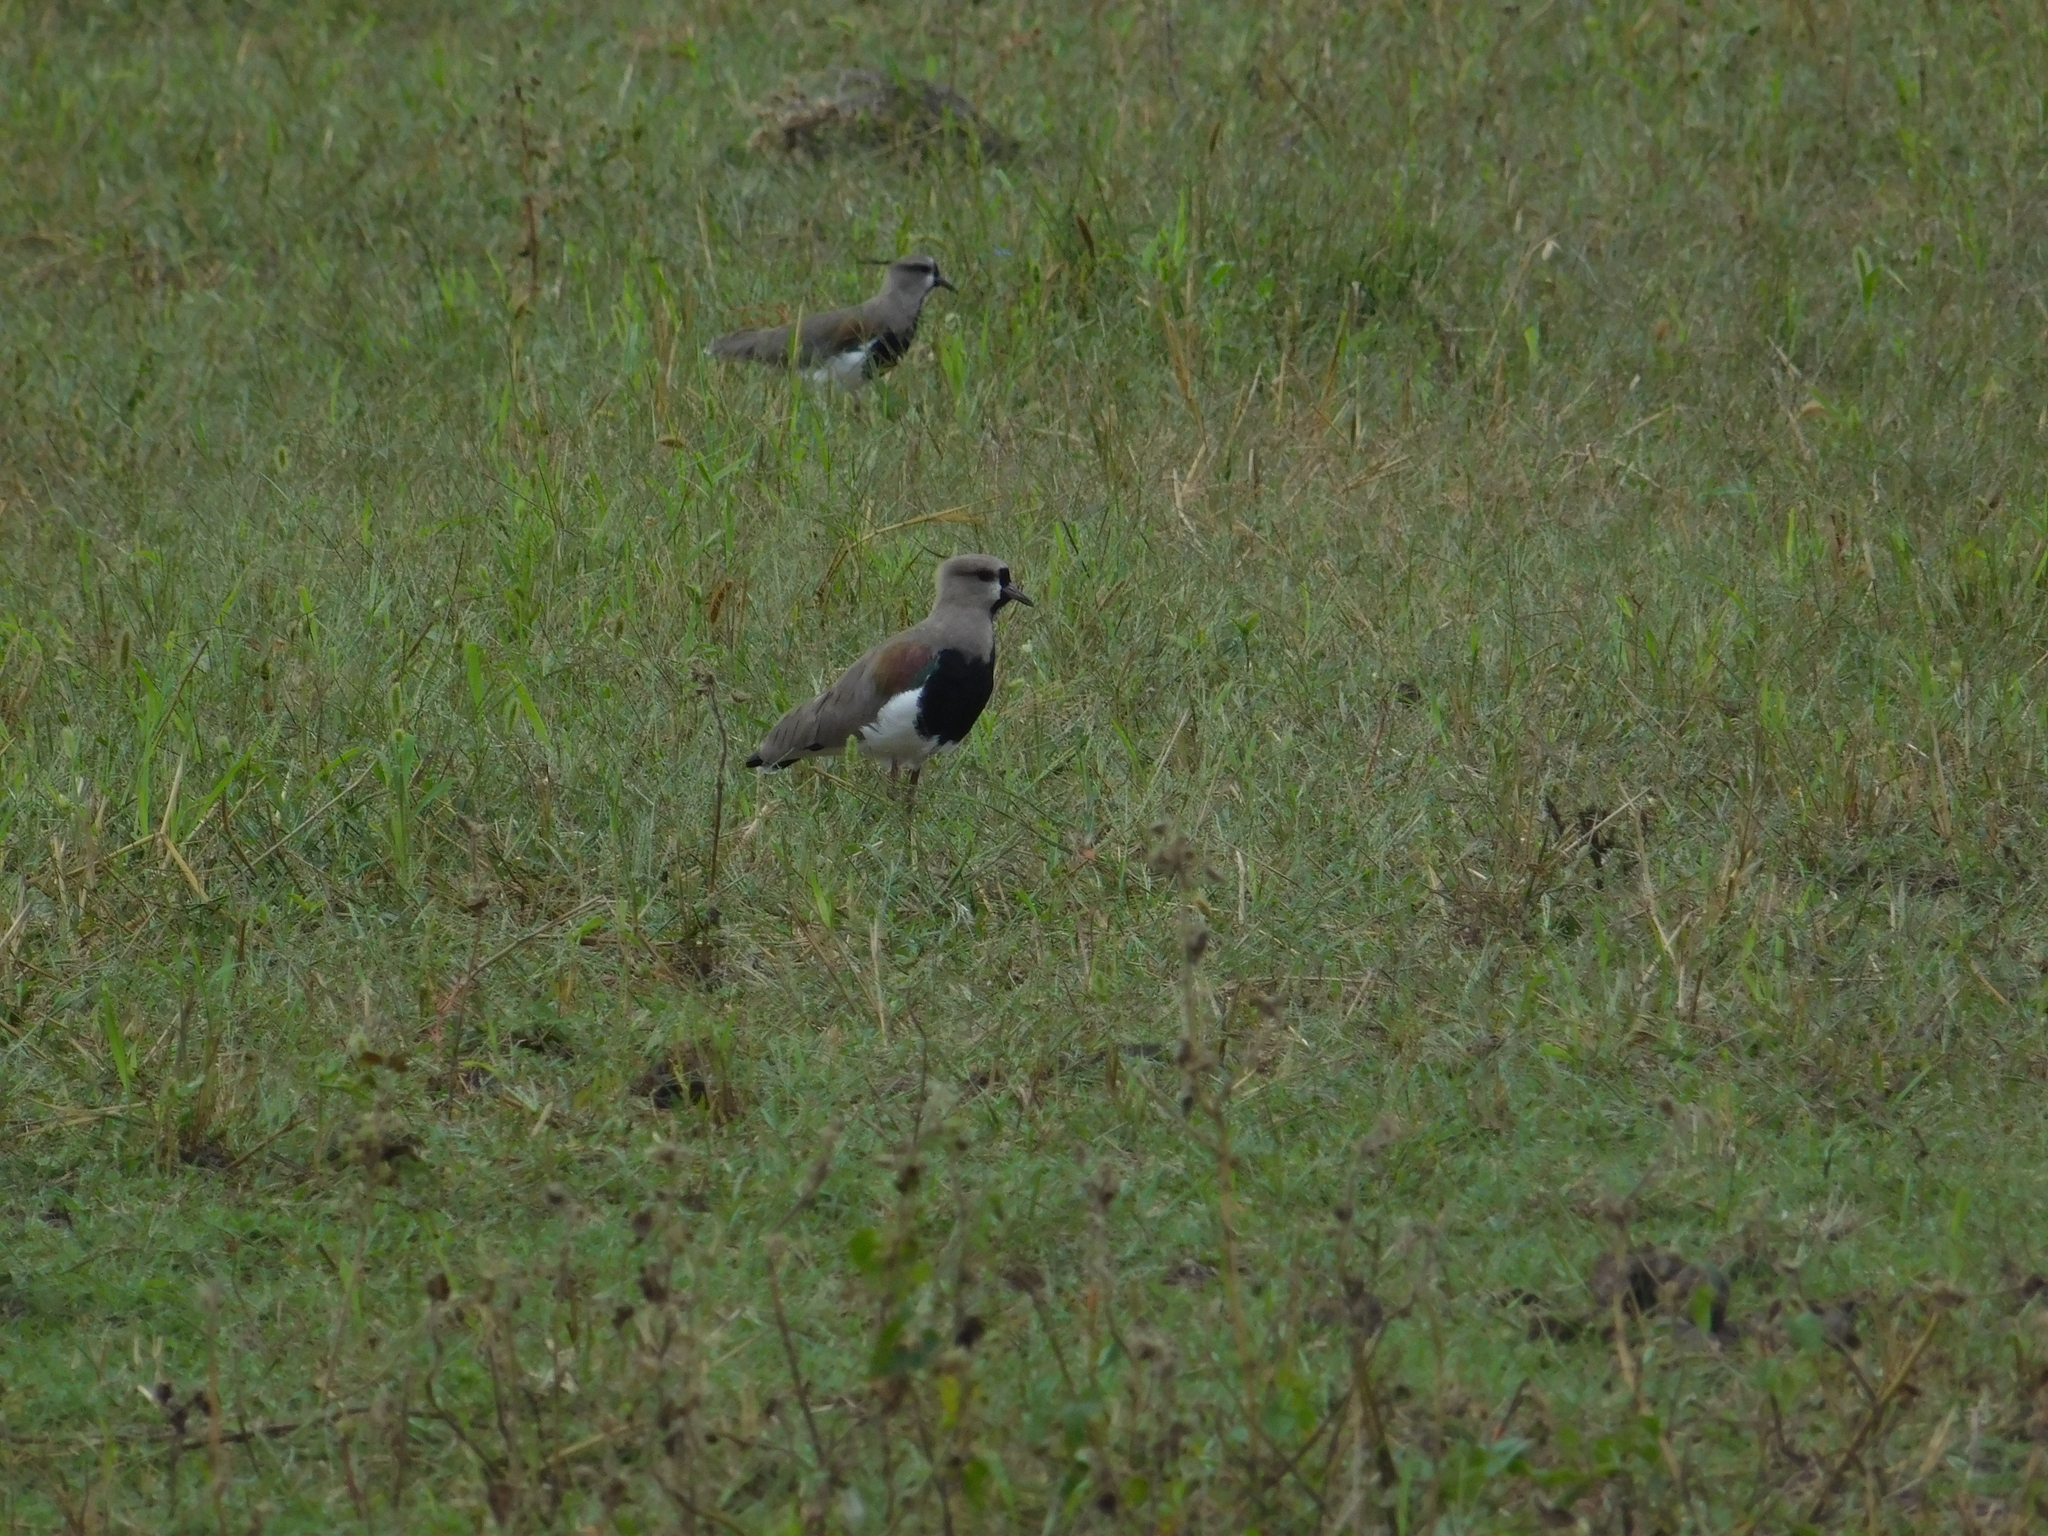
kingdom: Animalia
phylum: Chordata
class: Aves
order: Charadriiformes
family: Charadriidae
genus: Vanellus
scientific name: Vanellus chilensis
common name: Southern lapwing
